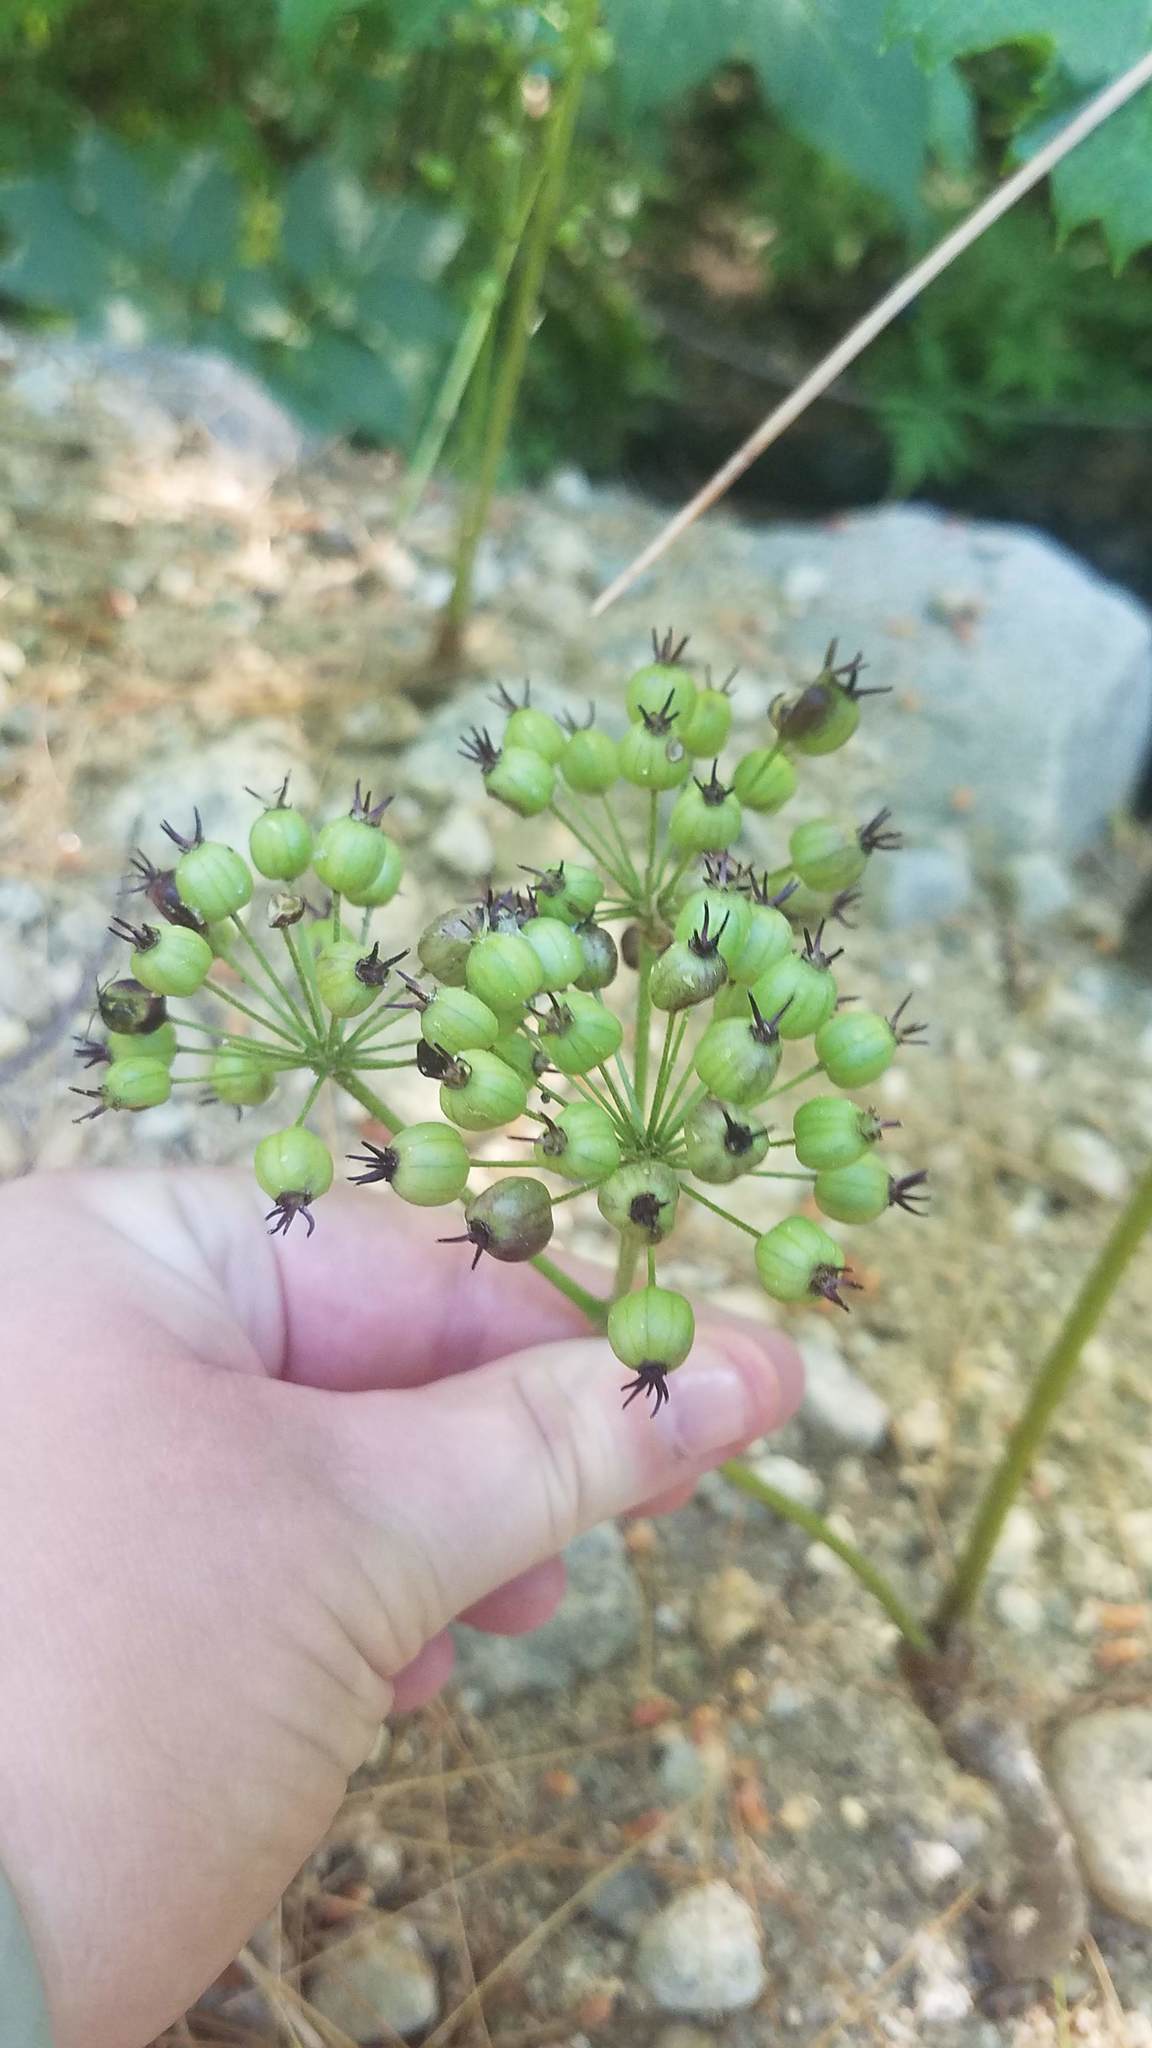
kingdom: Plantae
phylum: Tracheophyta
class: Magnoliopsida
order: Apiales
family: Araliaceae
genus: Aralia
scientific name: Aralia nudicaulis
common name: Wild sarsaparilla
